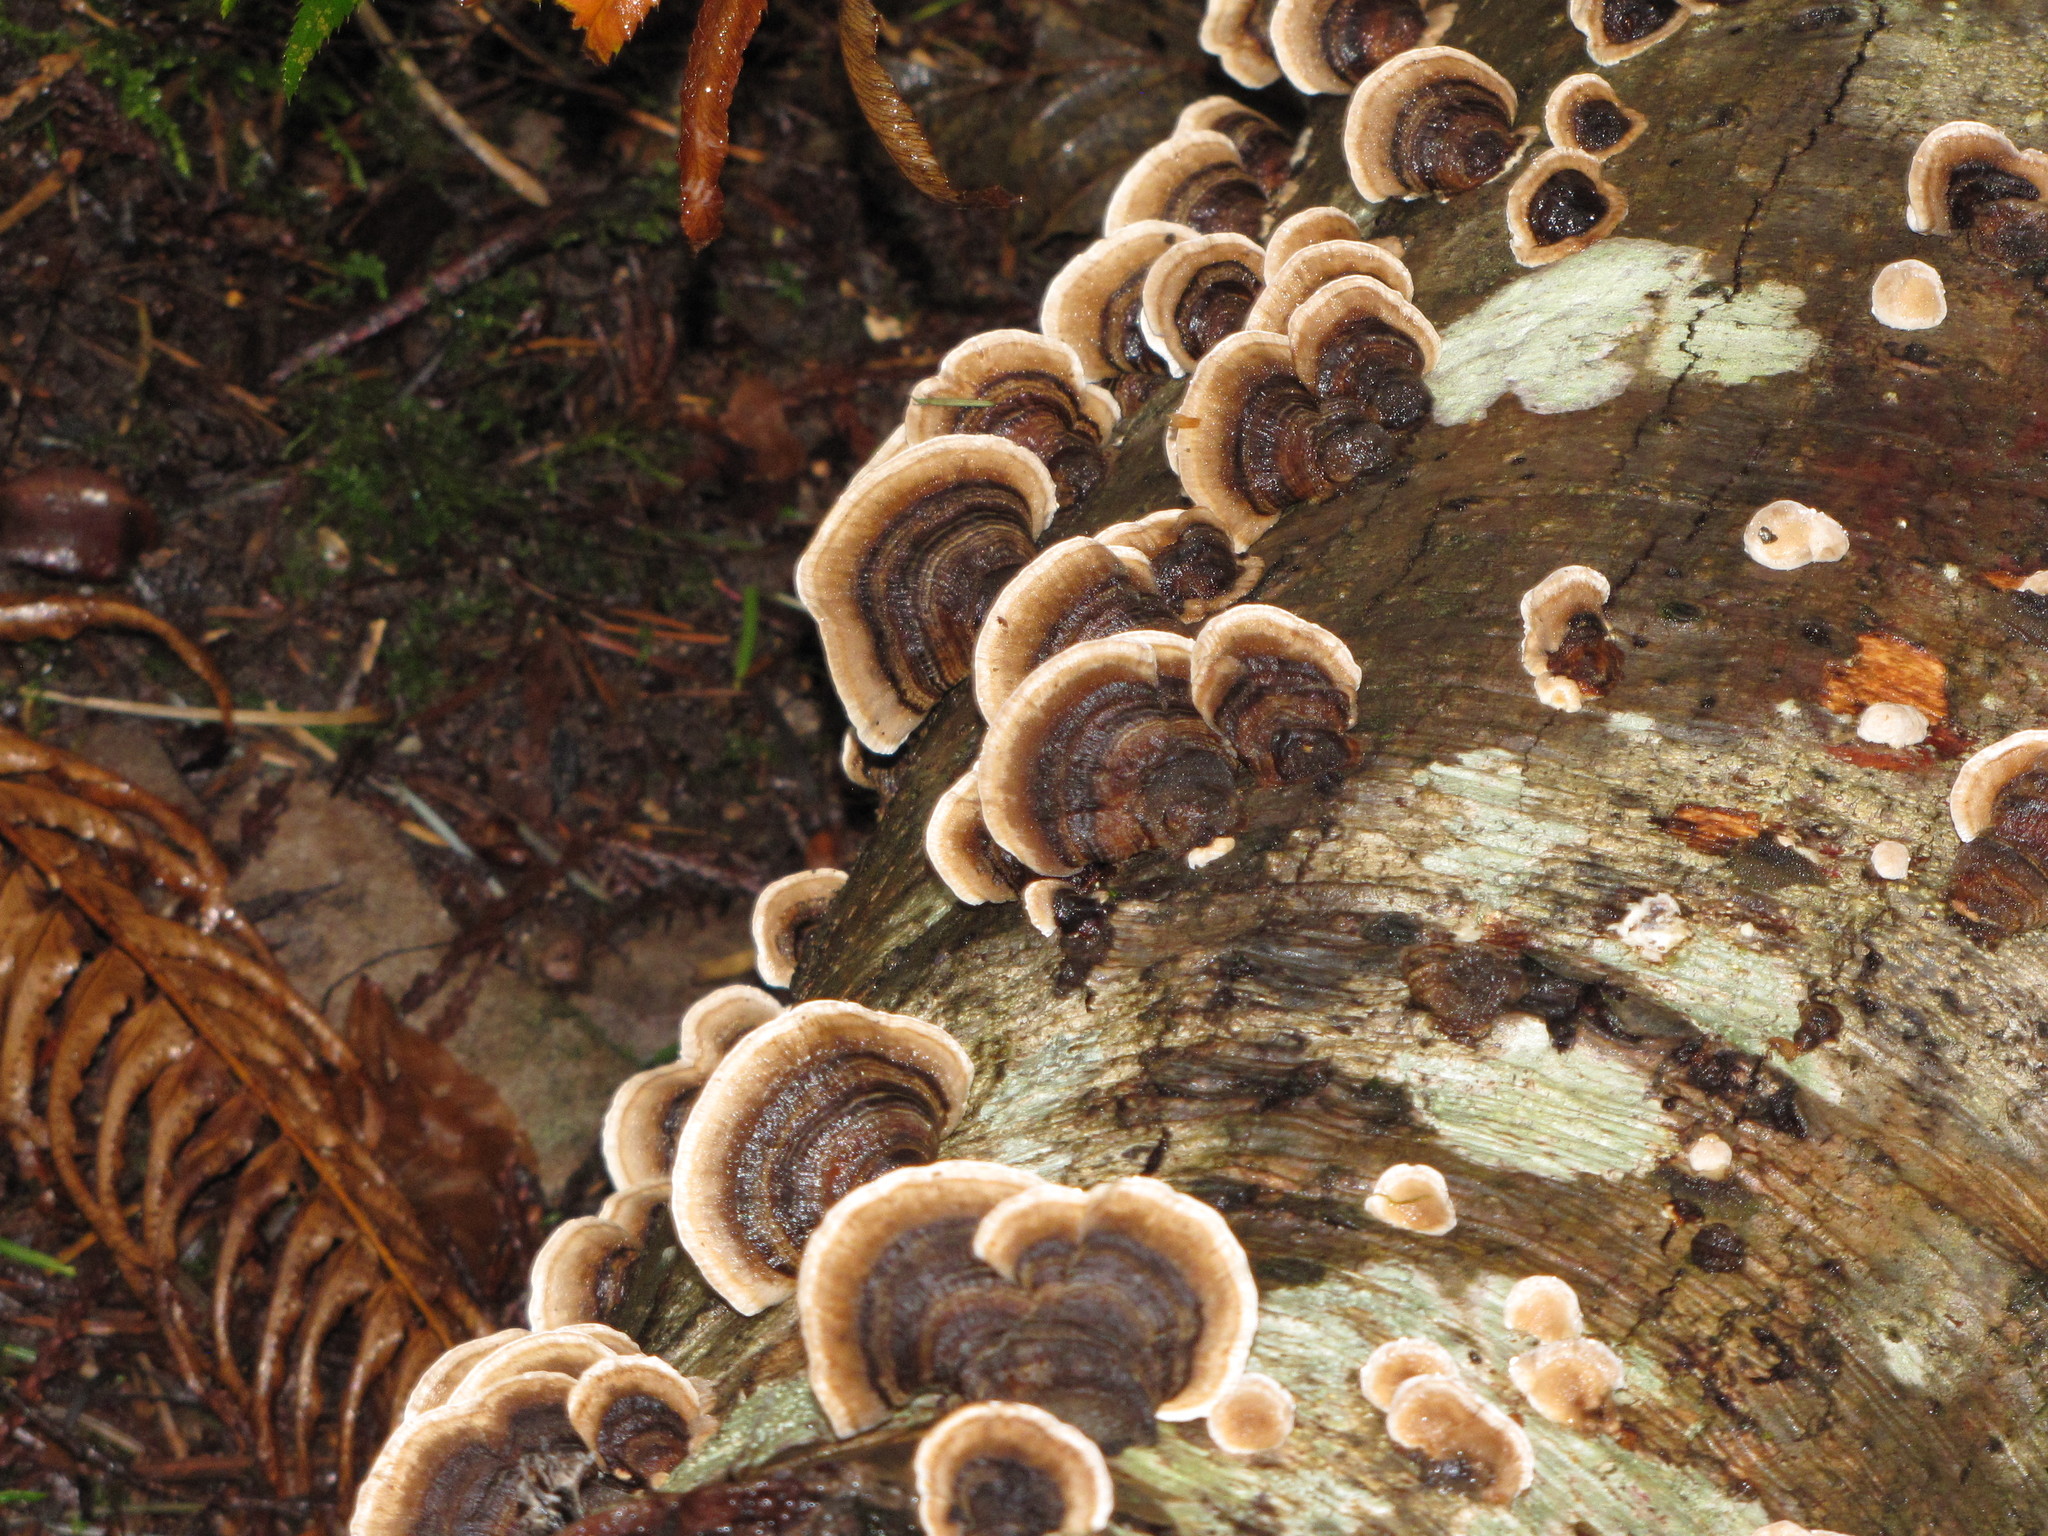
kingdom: Fungi
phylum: Basidiomycota
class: Agaricomycetes
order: Polyporales
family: Polyporaceae
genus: Trametes
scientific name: Trametes versicolor
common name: Turkeytail
